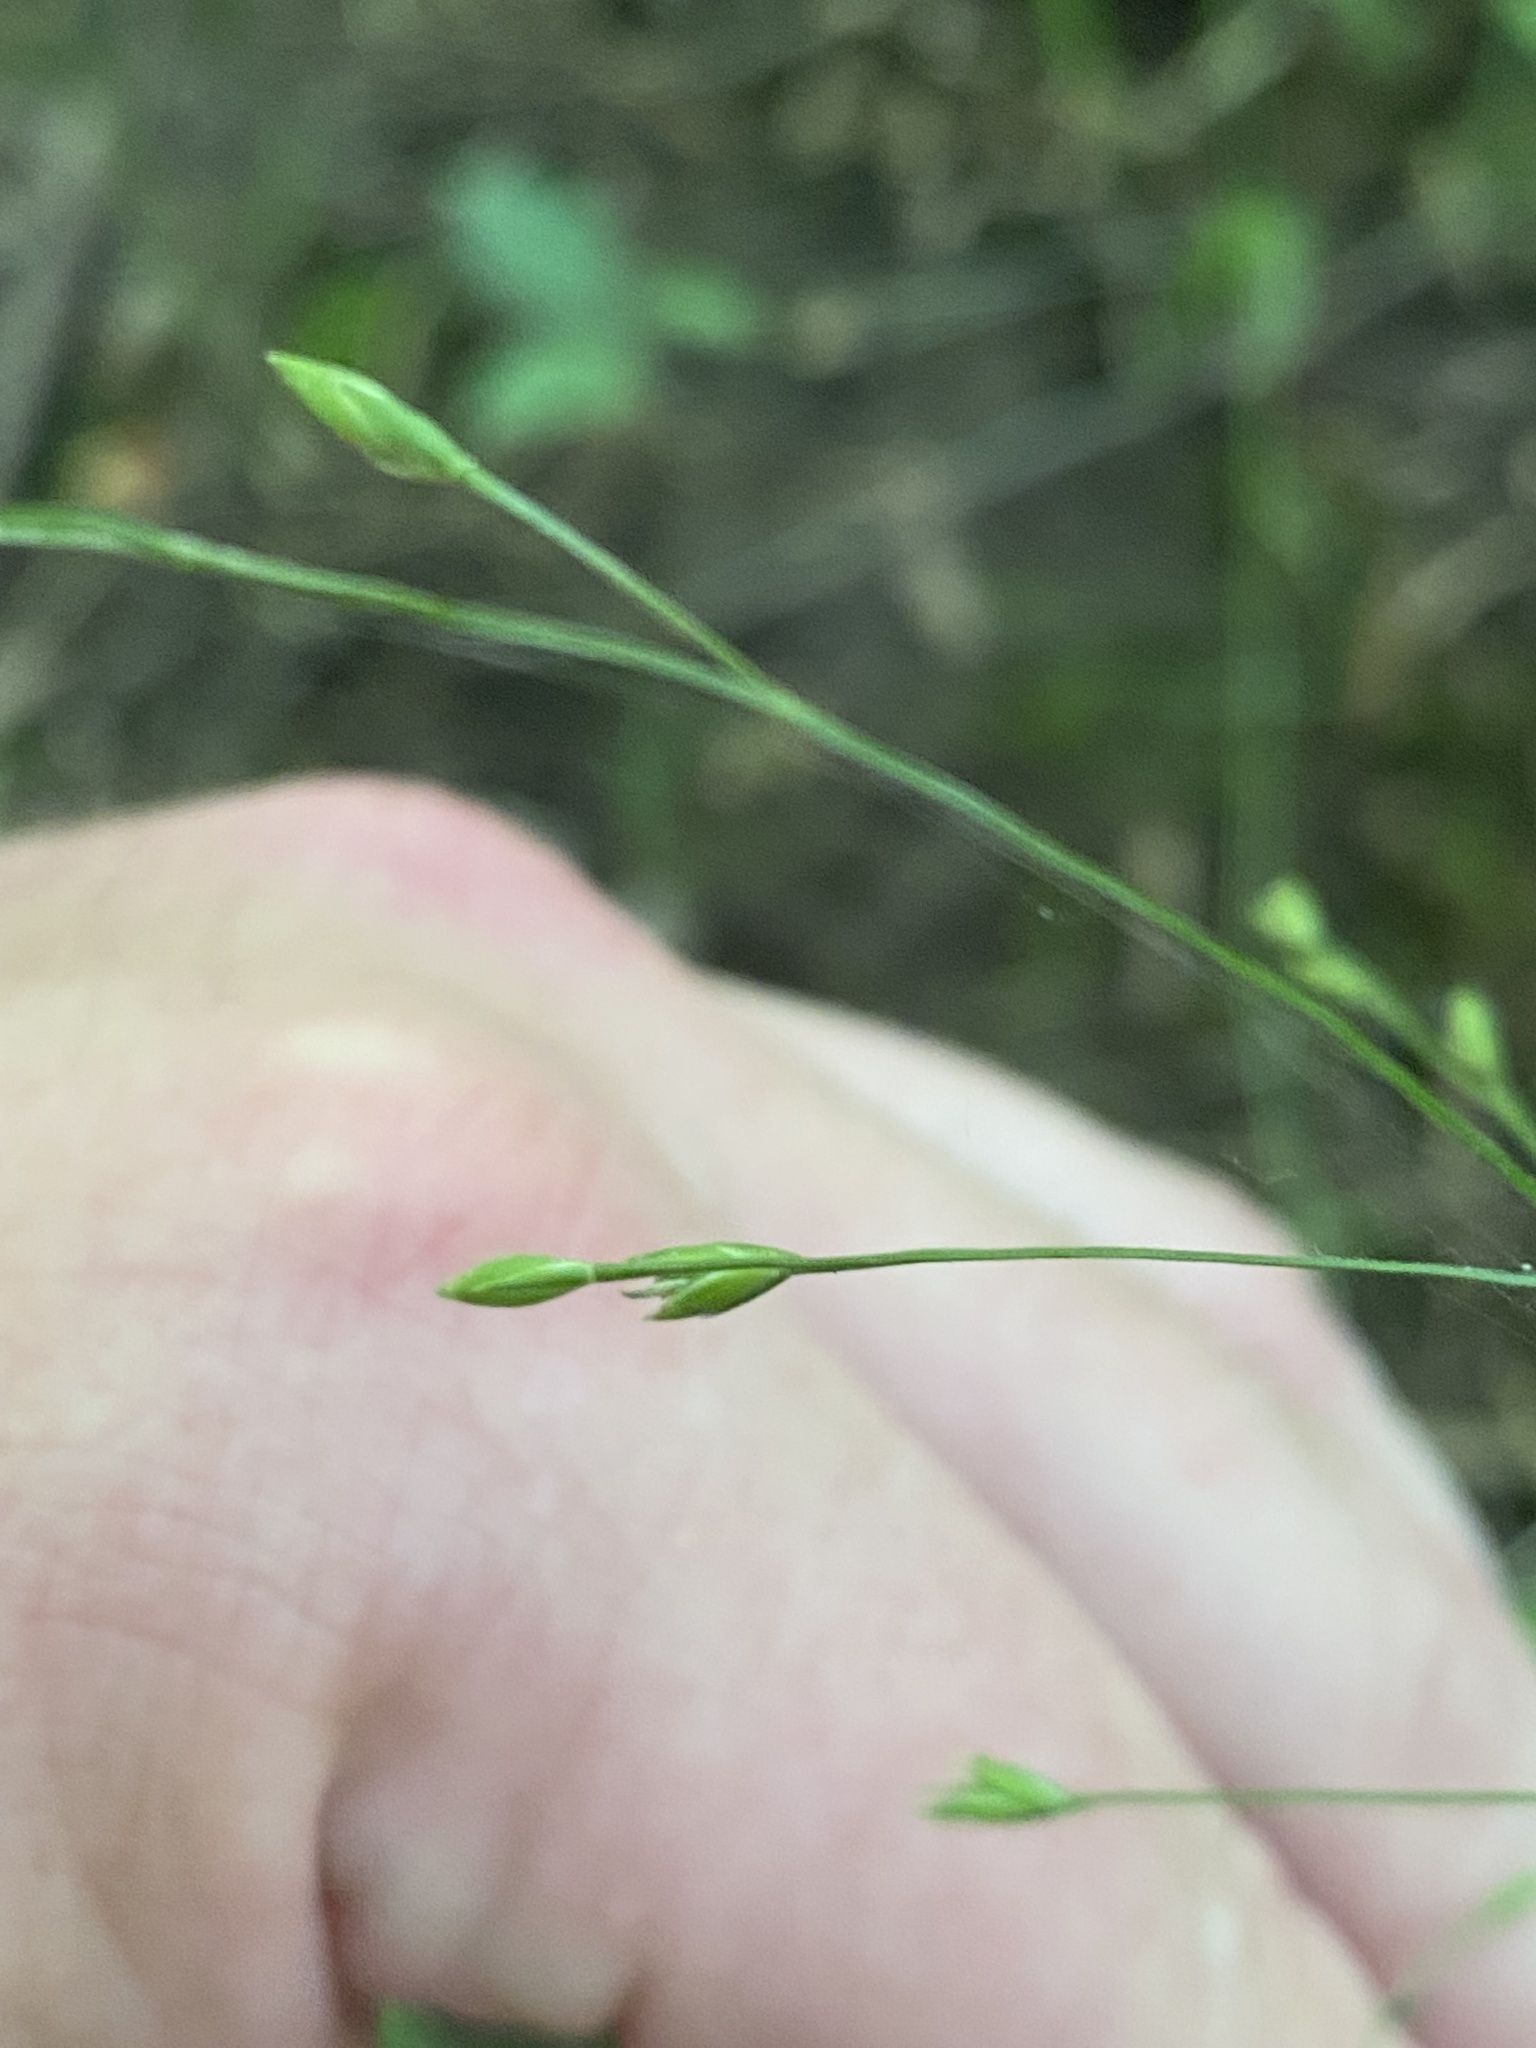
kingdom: Plantae
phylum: Tracheophyta
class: Liliopsida
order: Poales
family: Poaceae
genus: Festuca
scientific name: Festuca subverticillata
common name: Nodding fescue
